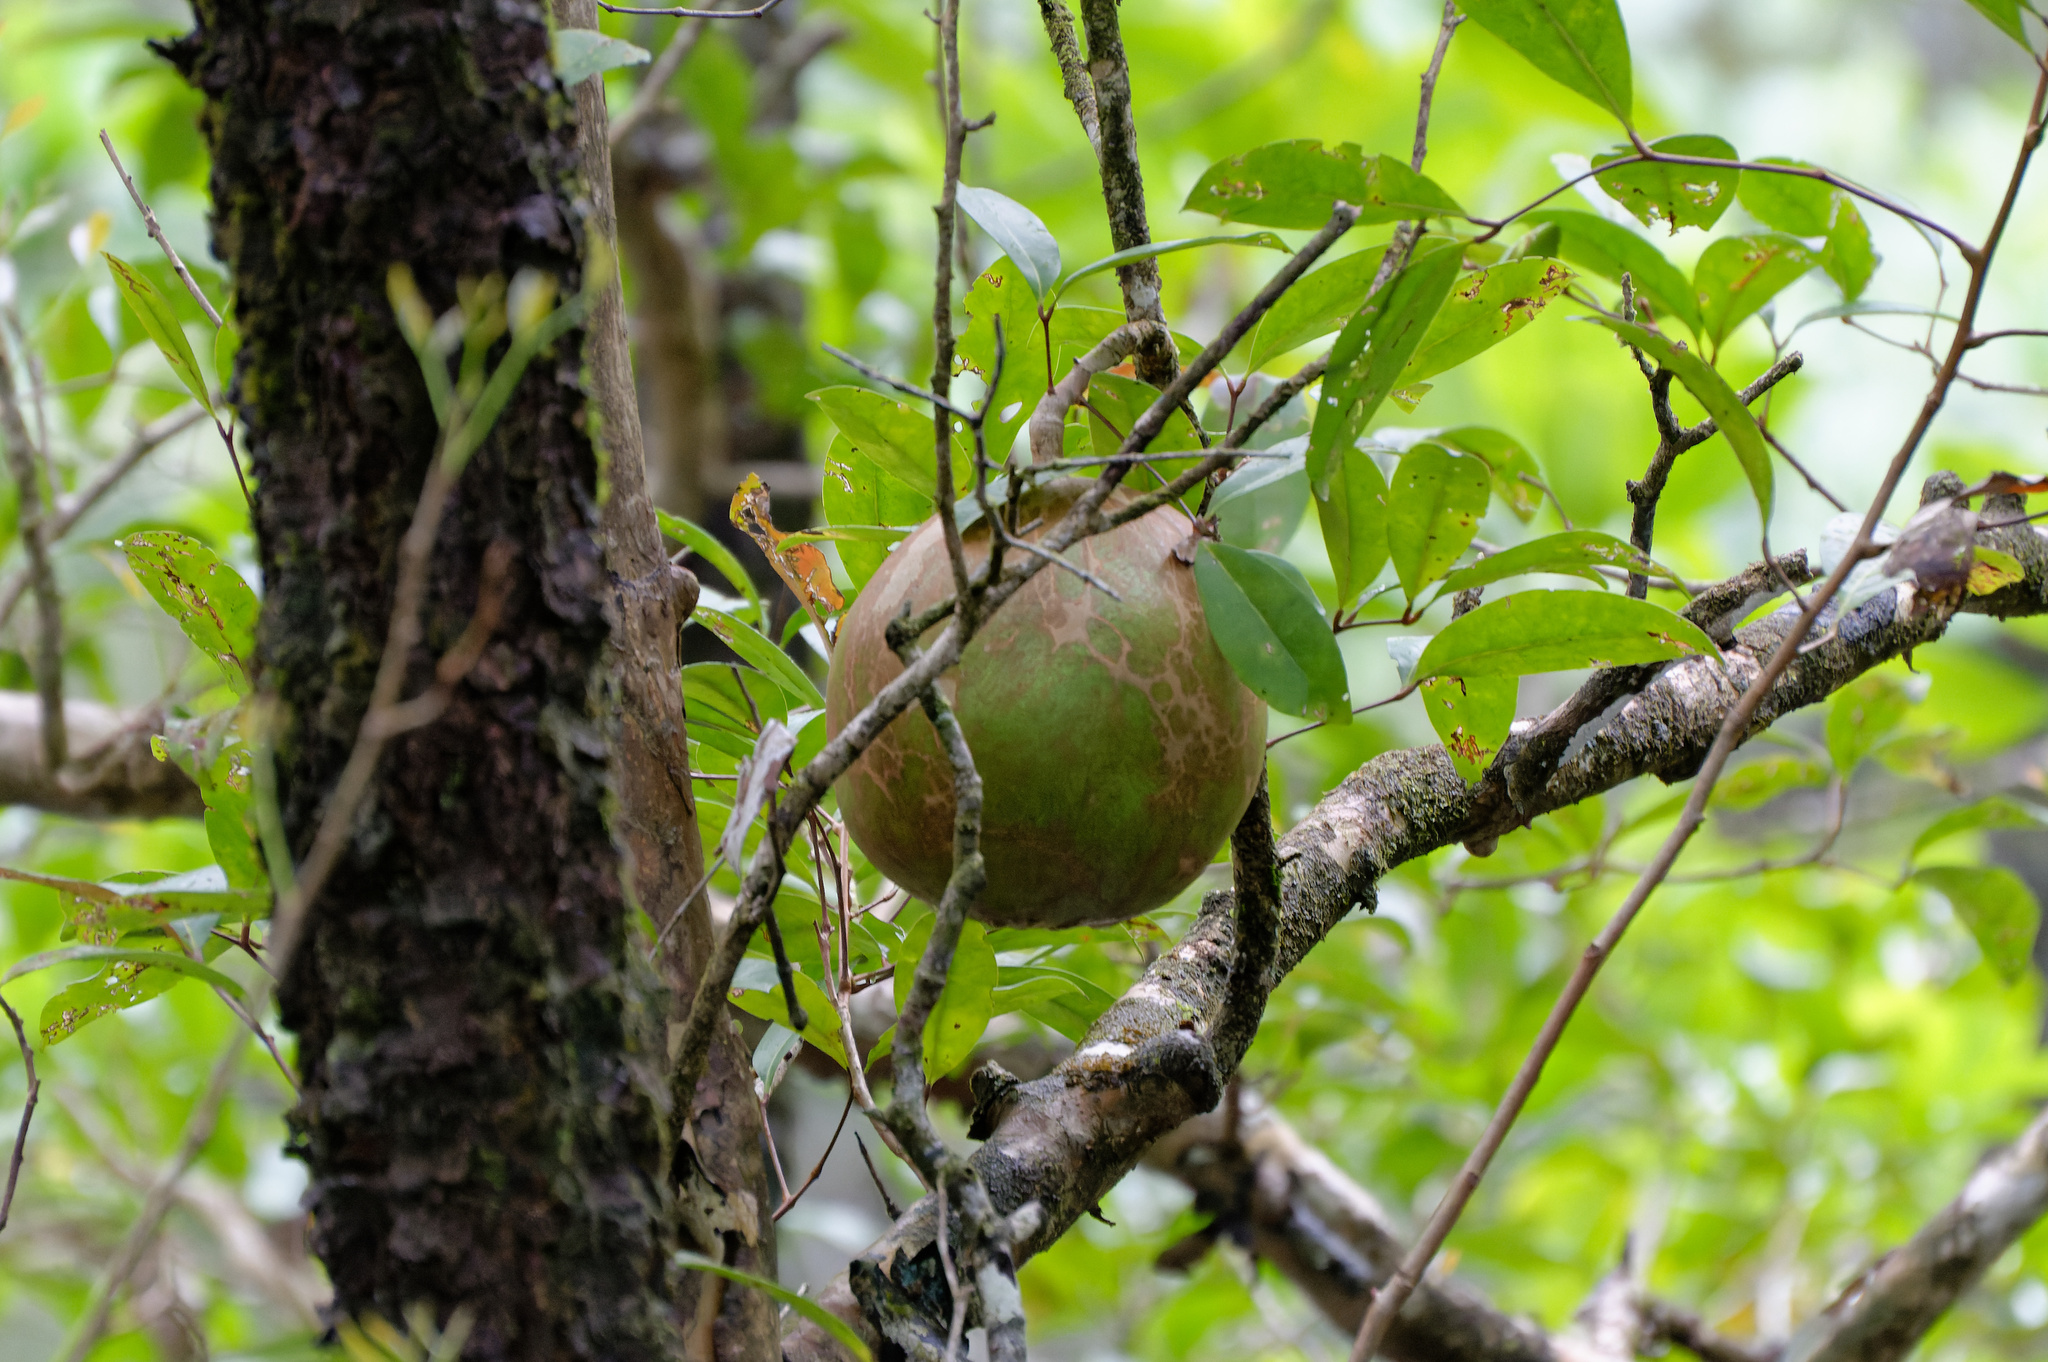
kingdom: Plantae
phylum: Tracheophyta
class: Magnoliopsida
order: Sapindales
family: Meliaceae
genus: Xylocarpus
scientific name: Xylocarpus granatum
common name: Apple mangrove
